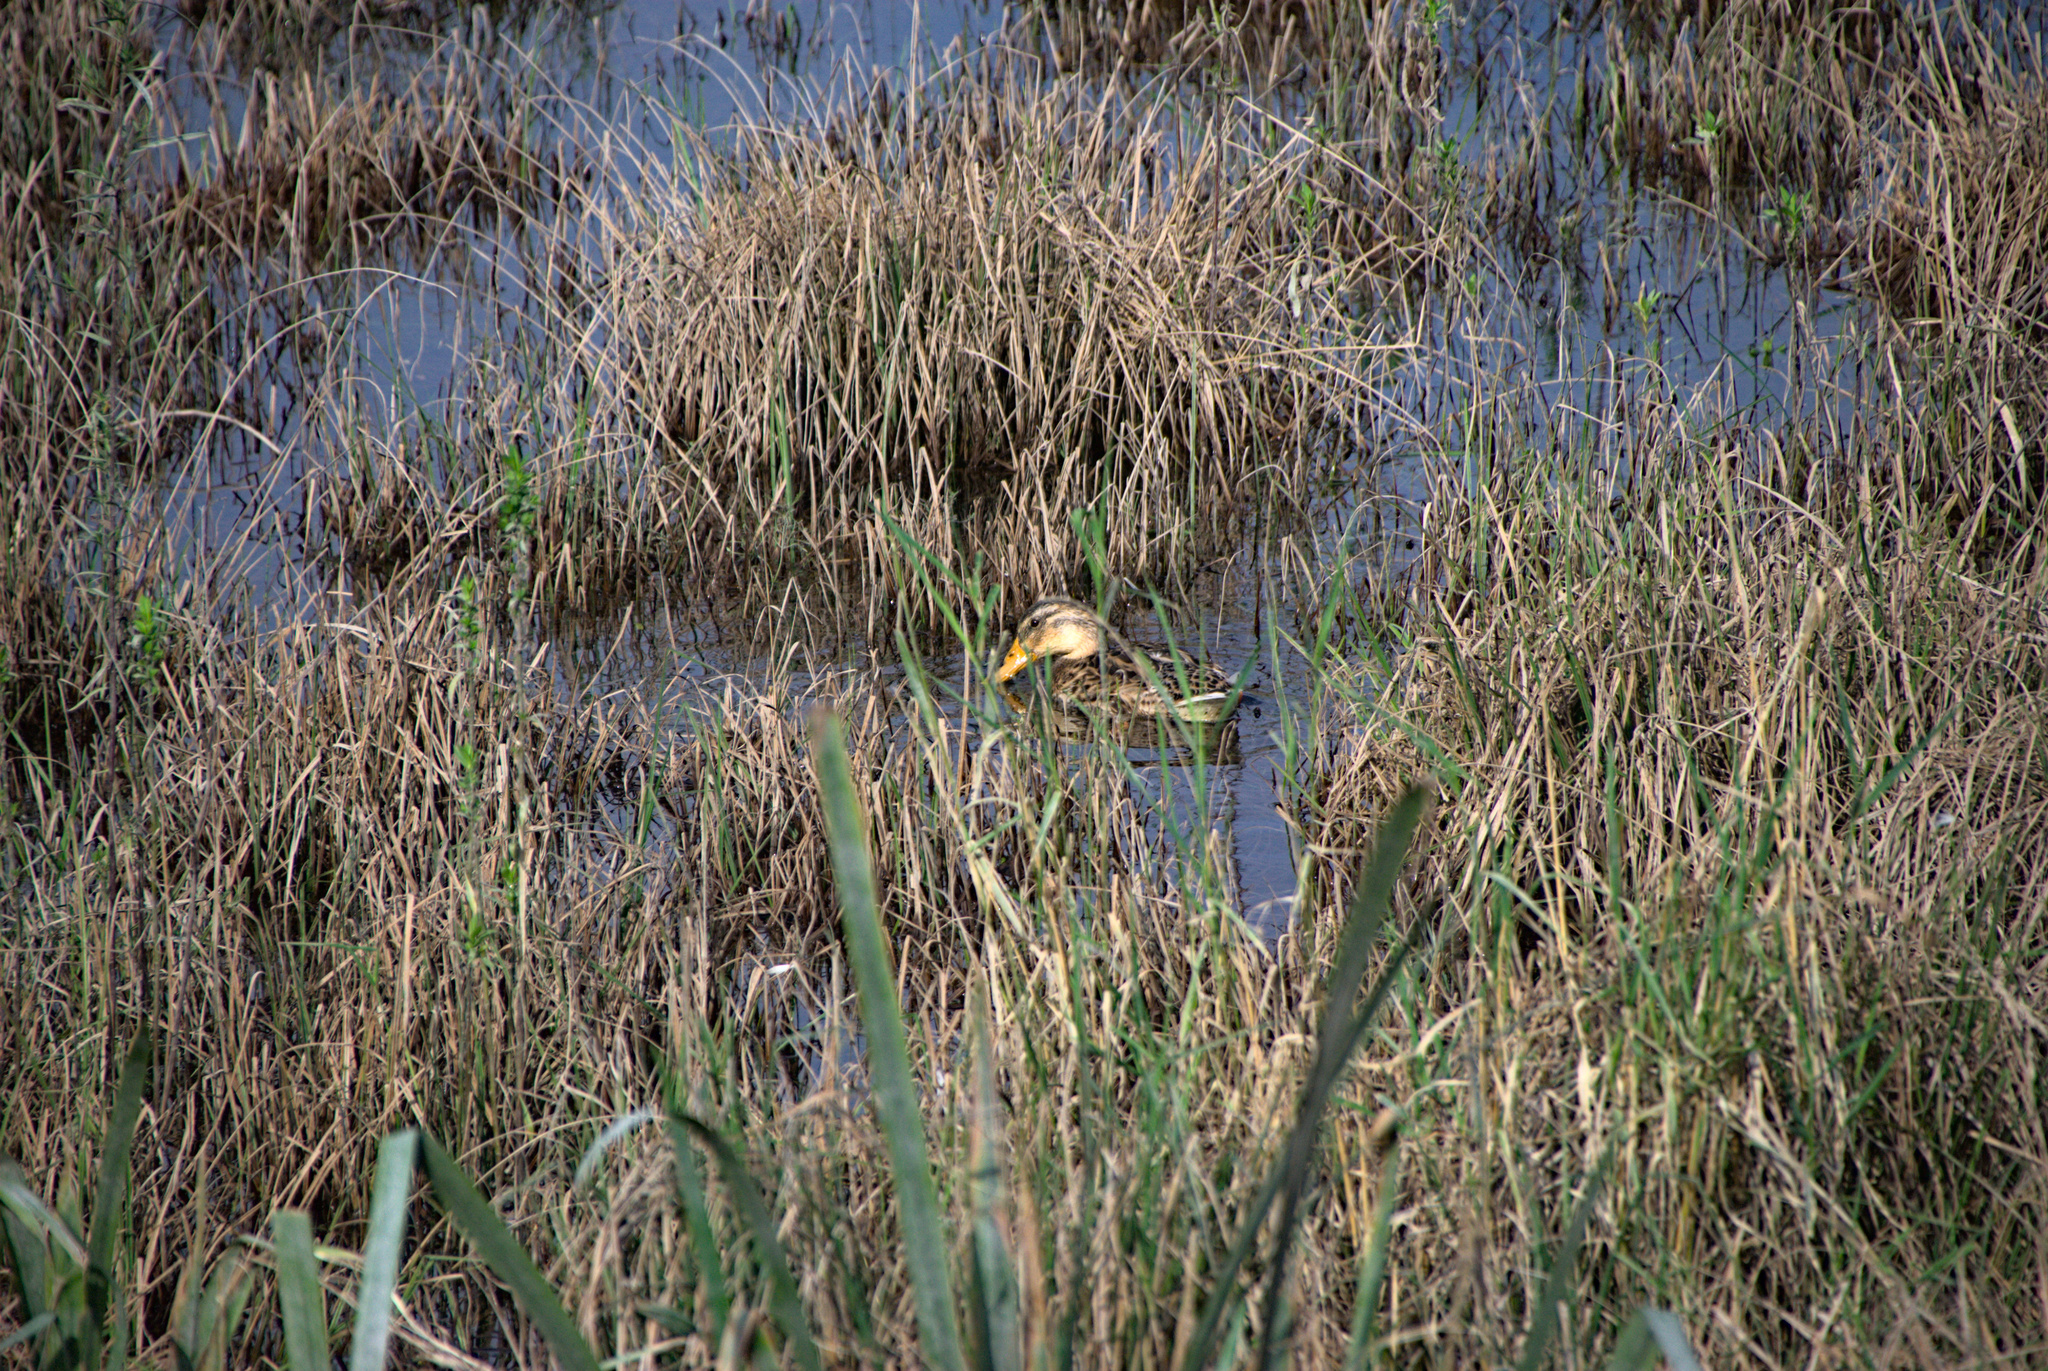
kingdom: Animalia
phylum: Chordata
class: Aves
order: Anseriformes
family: Anatidae
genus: Anas
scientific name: Anas platyrhynchos
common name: Mallard
